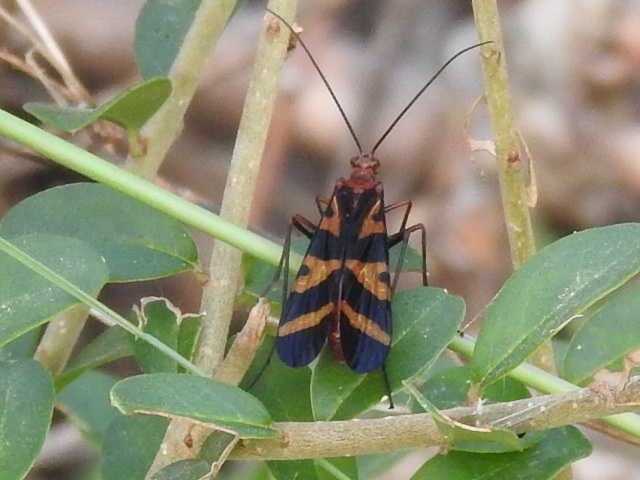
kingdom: Animalia
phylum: Arthropoda
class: Insecta
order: Mecoptera
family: Panorpidae
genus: Panorpa
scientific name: Panorpa nuptialis
